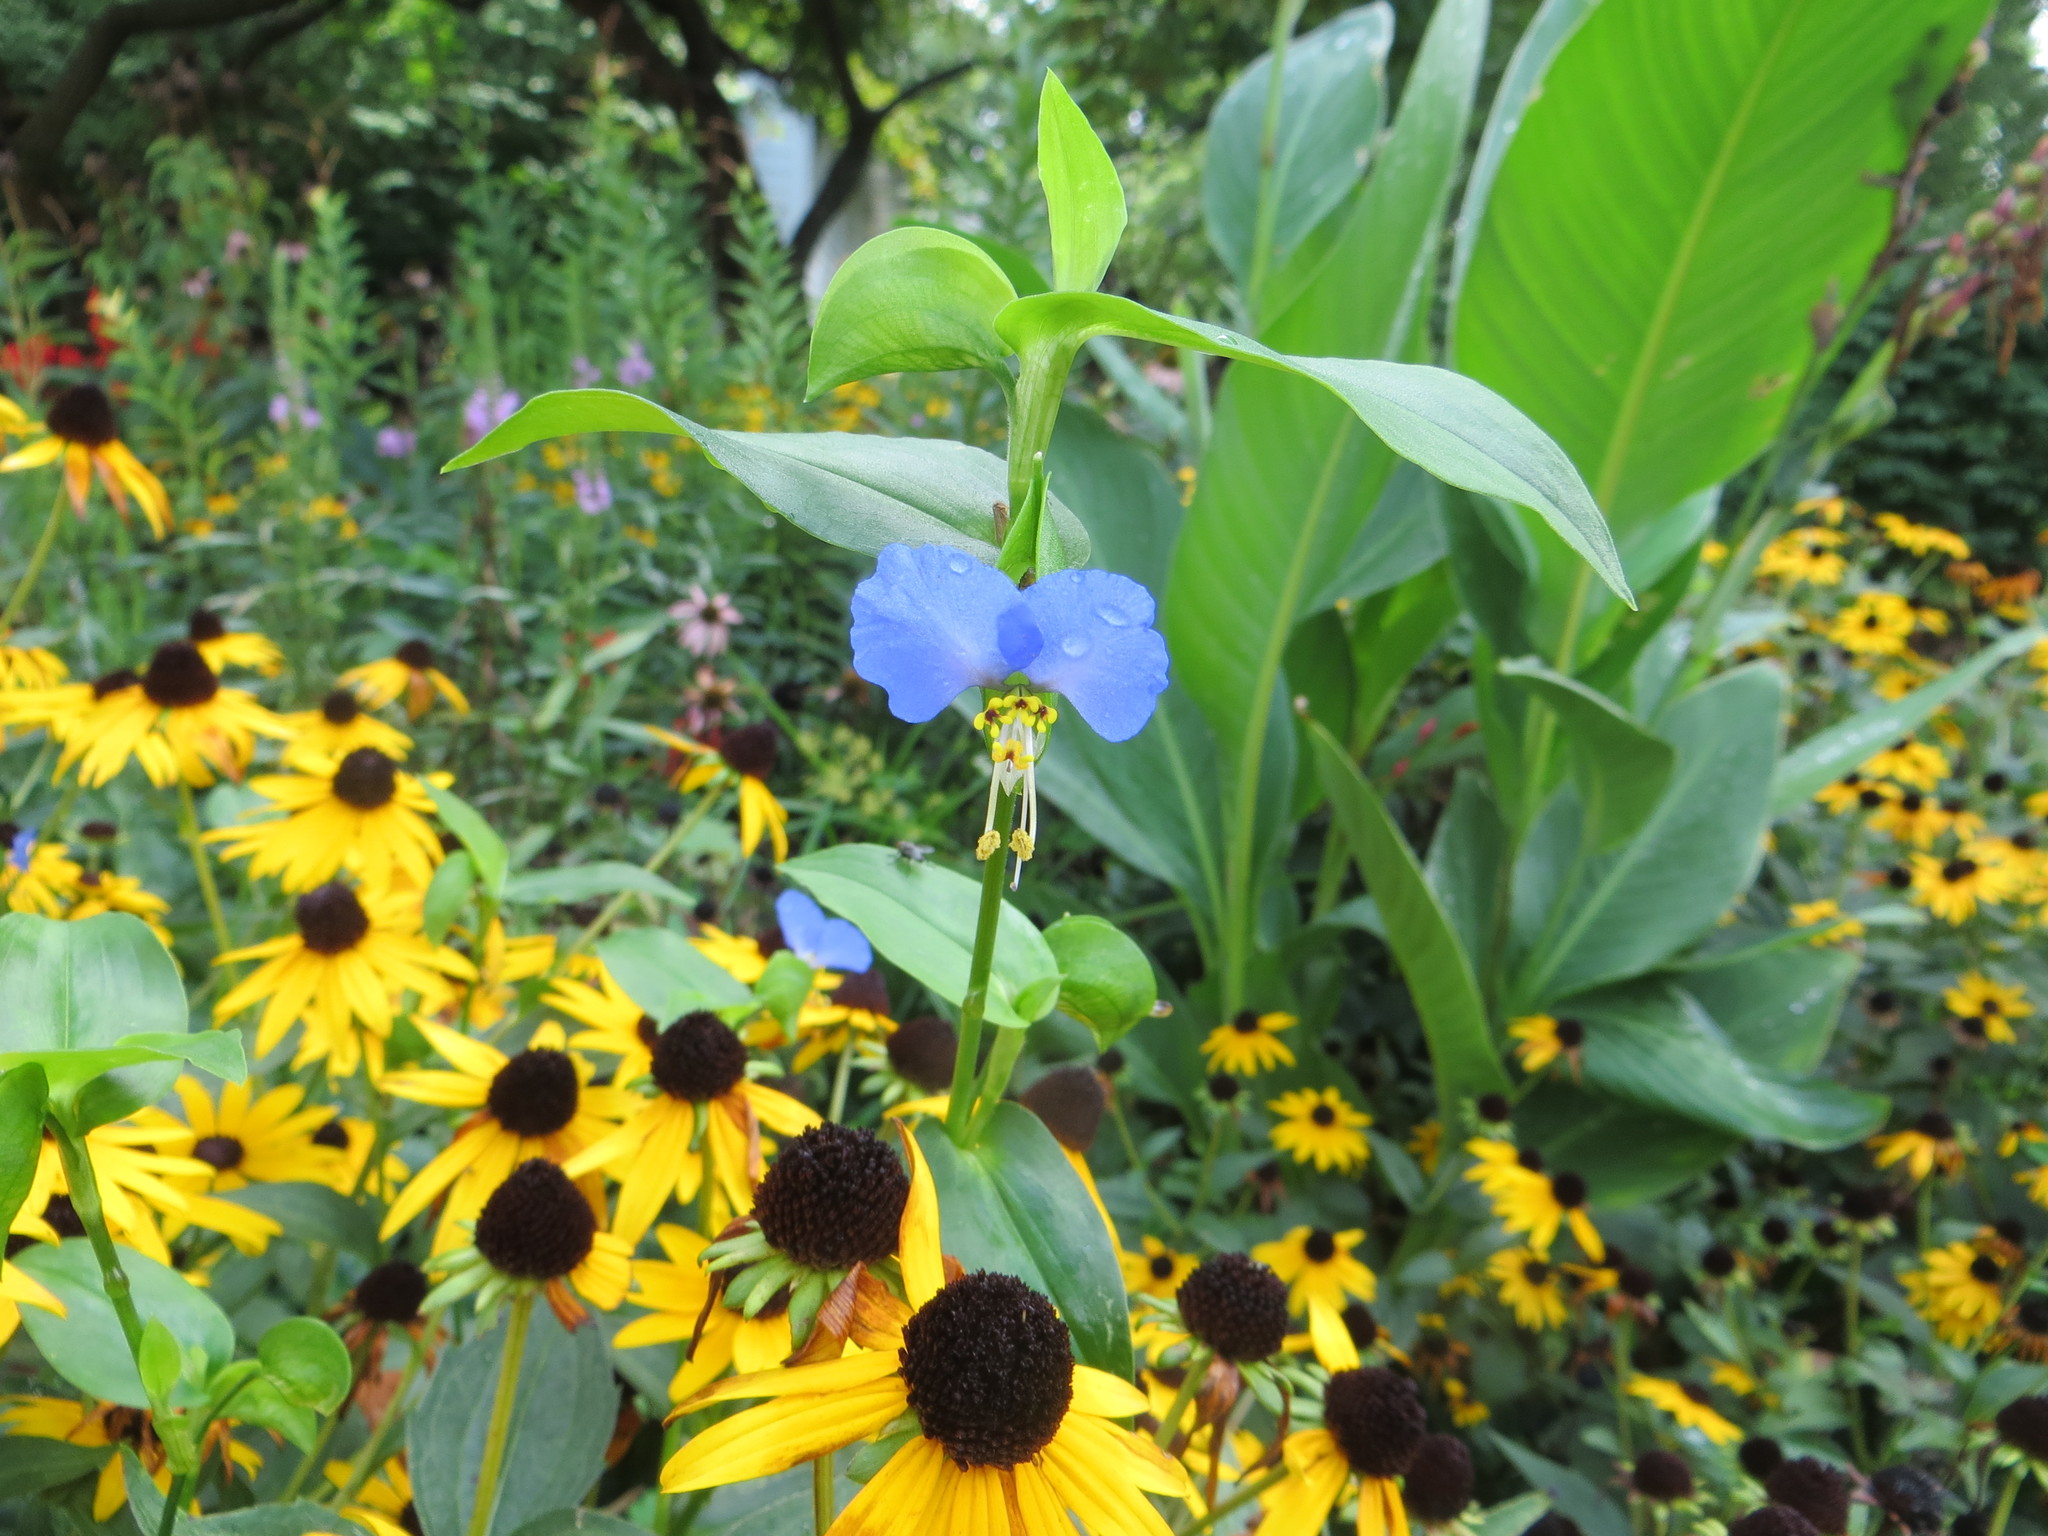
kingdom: Plantae
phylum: Tracheophyta
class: Liliopsida
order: Commelinales
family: Commelinaceae
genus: Commelina
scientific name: Commelina communis
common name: Asiatic dayflower
